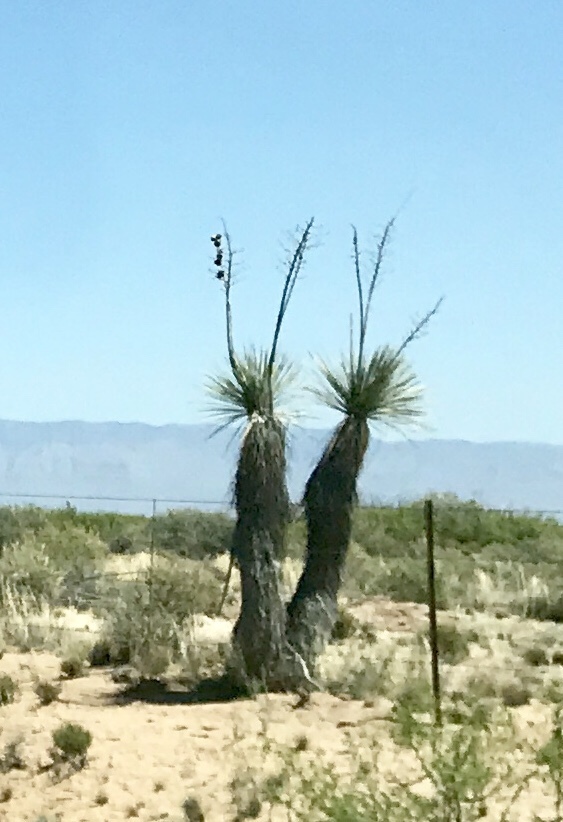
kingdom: Plantae
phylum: Tracheophyta
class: Liliopsida
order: Asparagales
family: Asparagaceae
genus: Yucca
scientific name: Yucca elata
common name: Palmella
